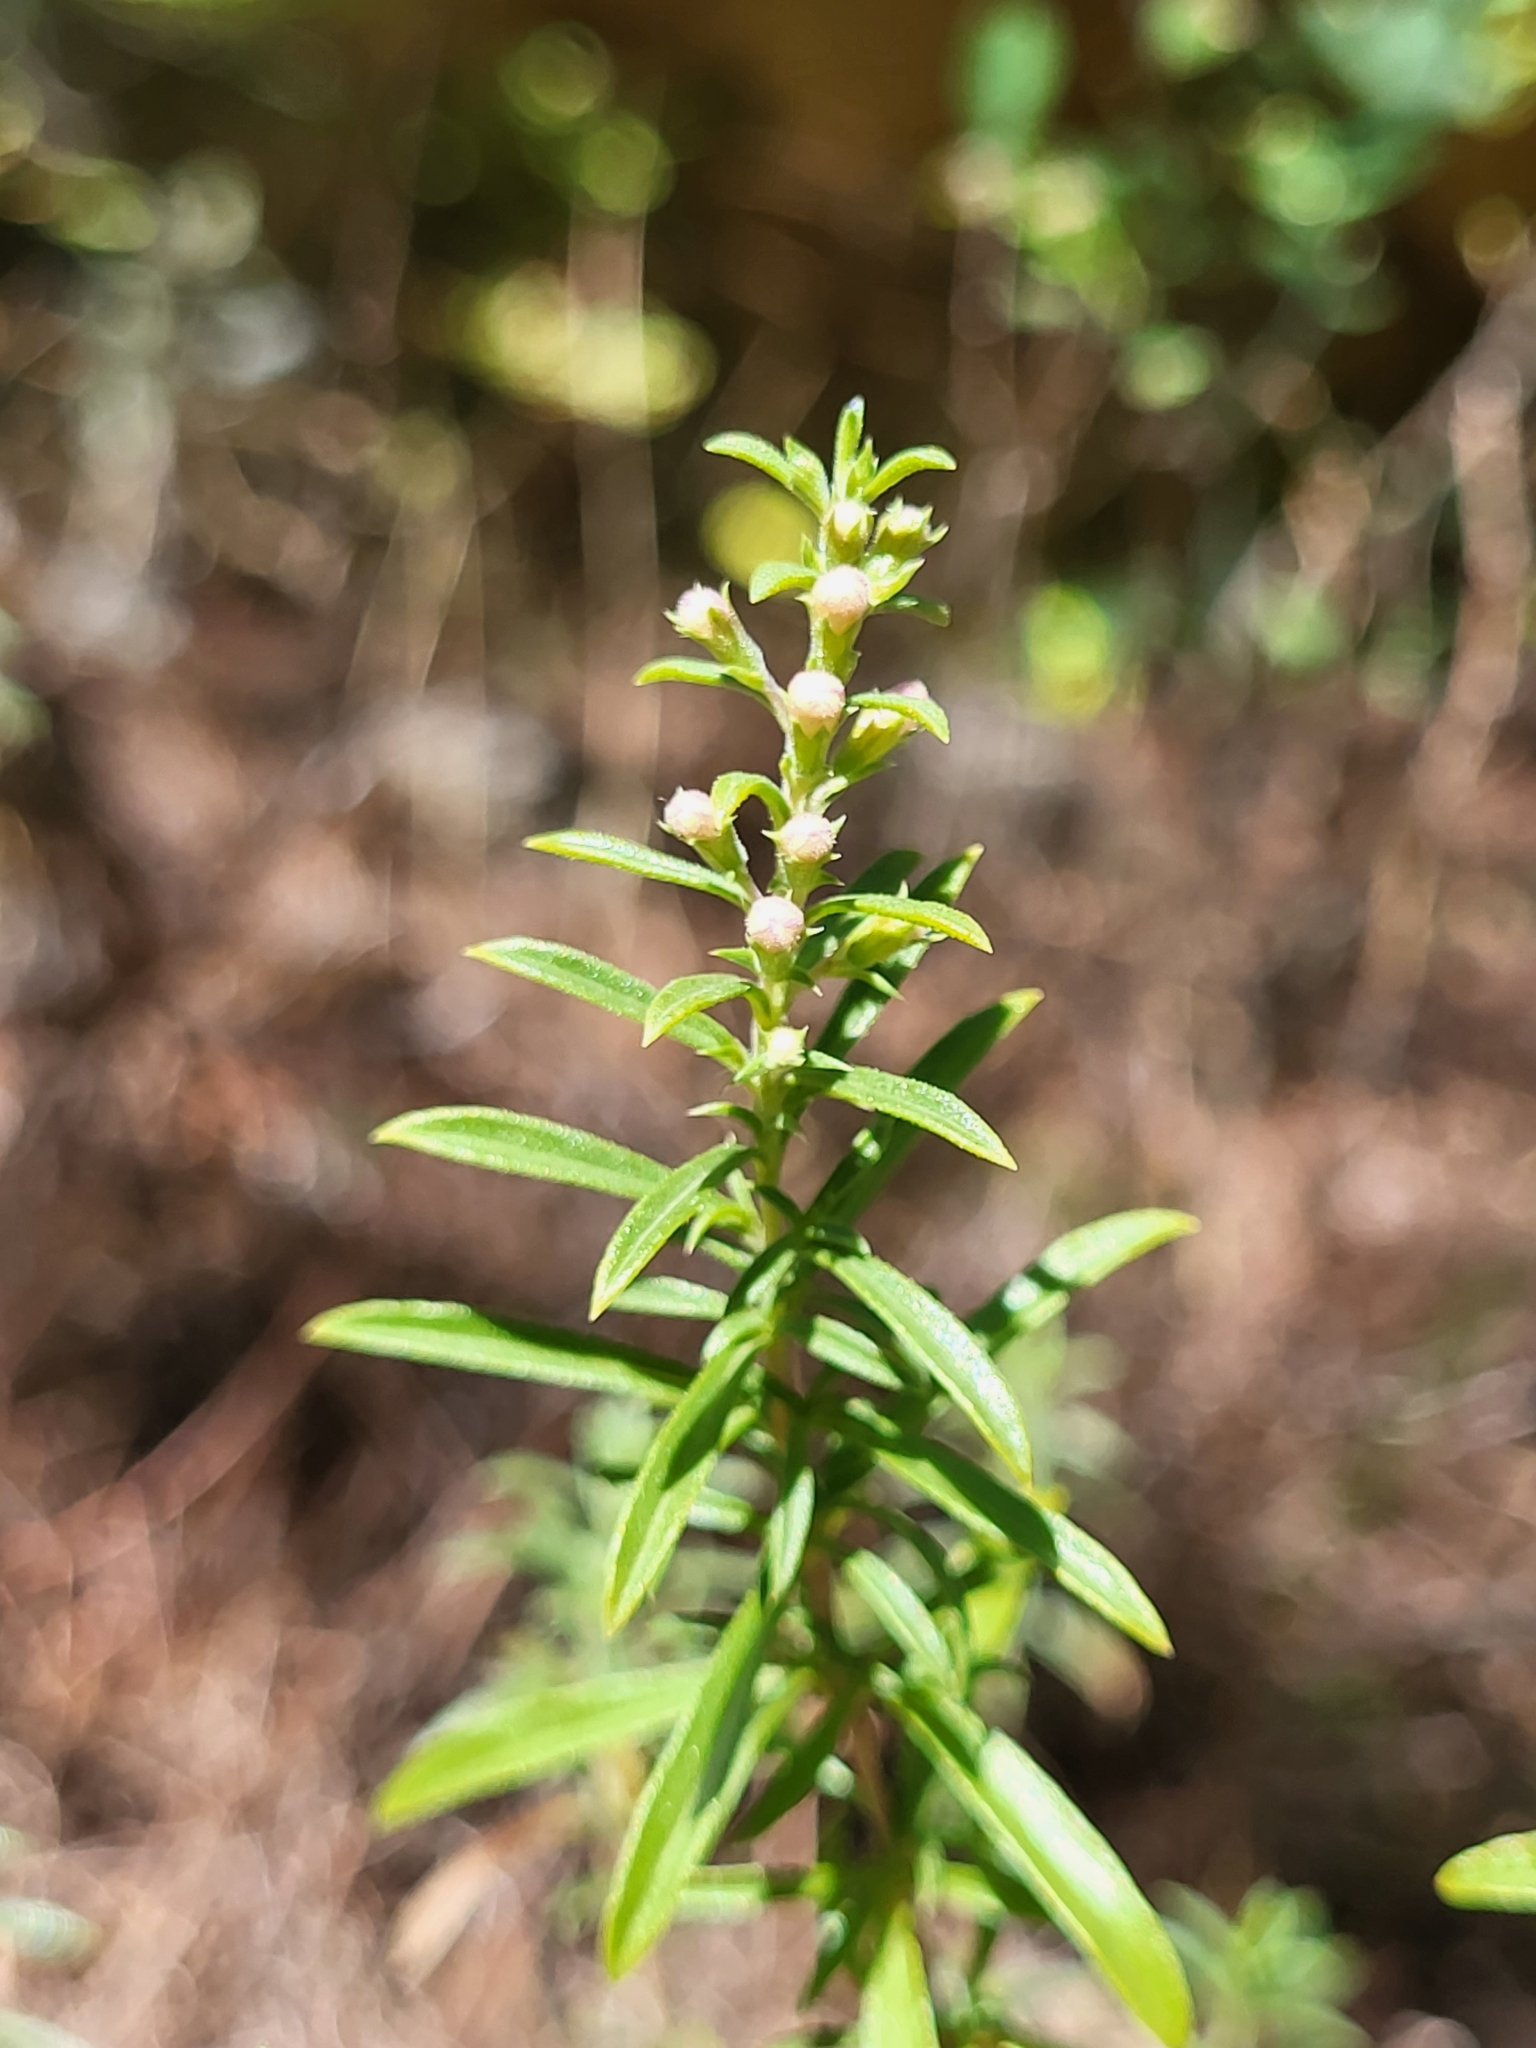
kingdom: Plantae
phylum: Tracheophyta
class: Magnoliopsida
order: Lamiales
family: Lamiaceae
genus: Satureja
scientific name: Satureja montana
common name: Winter savory
